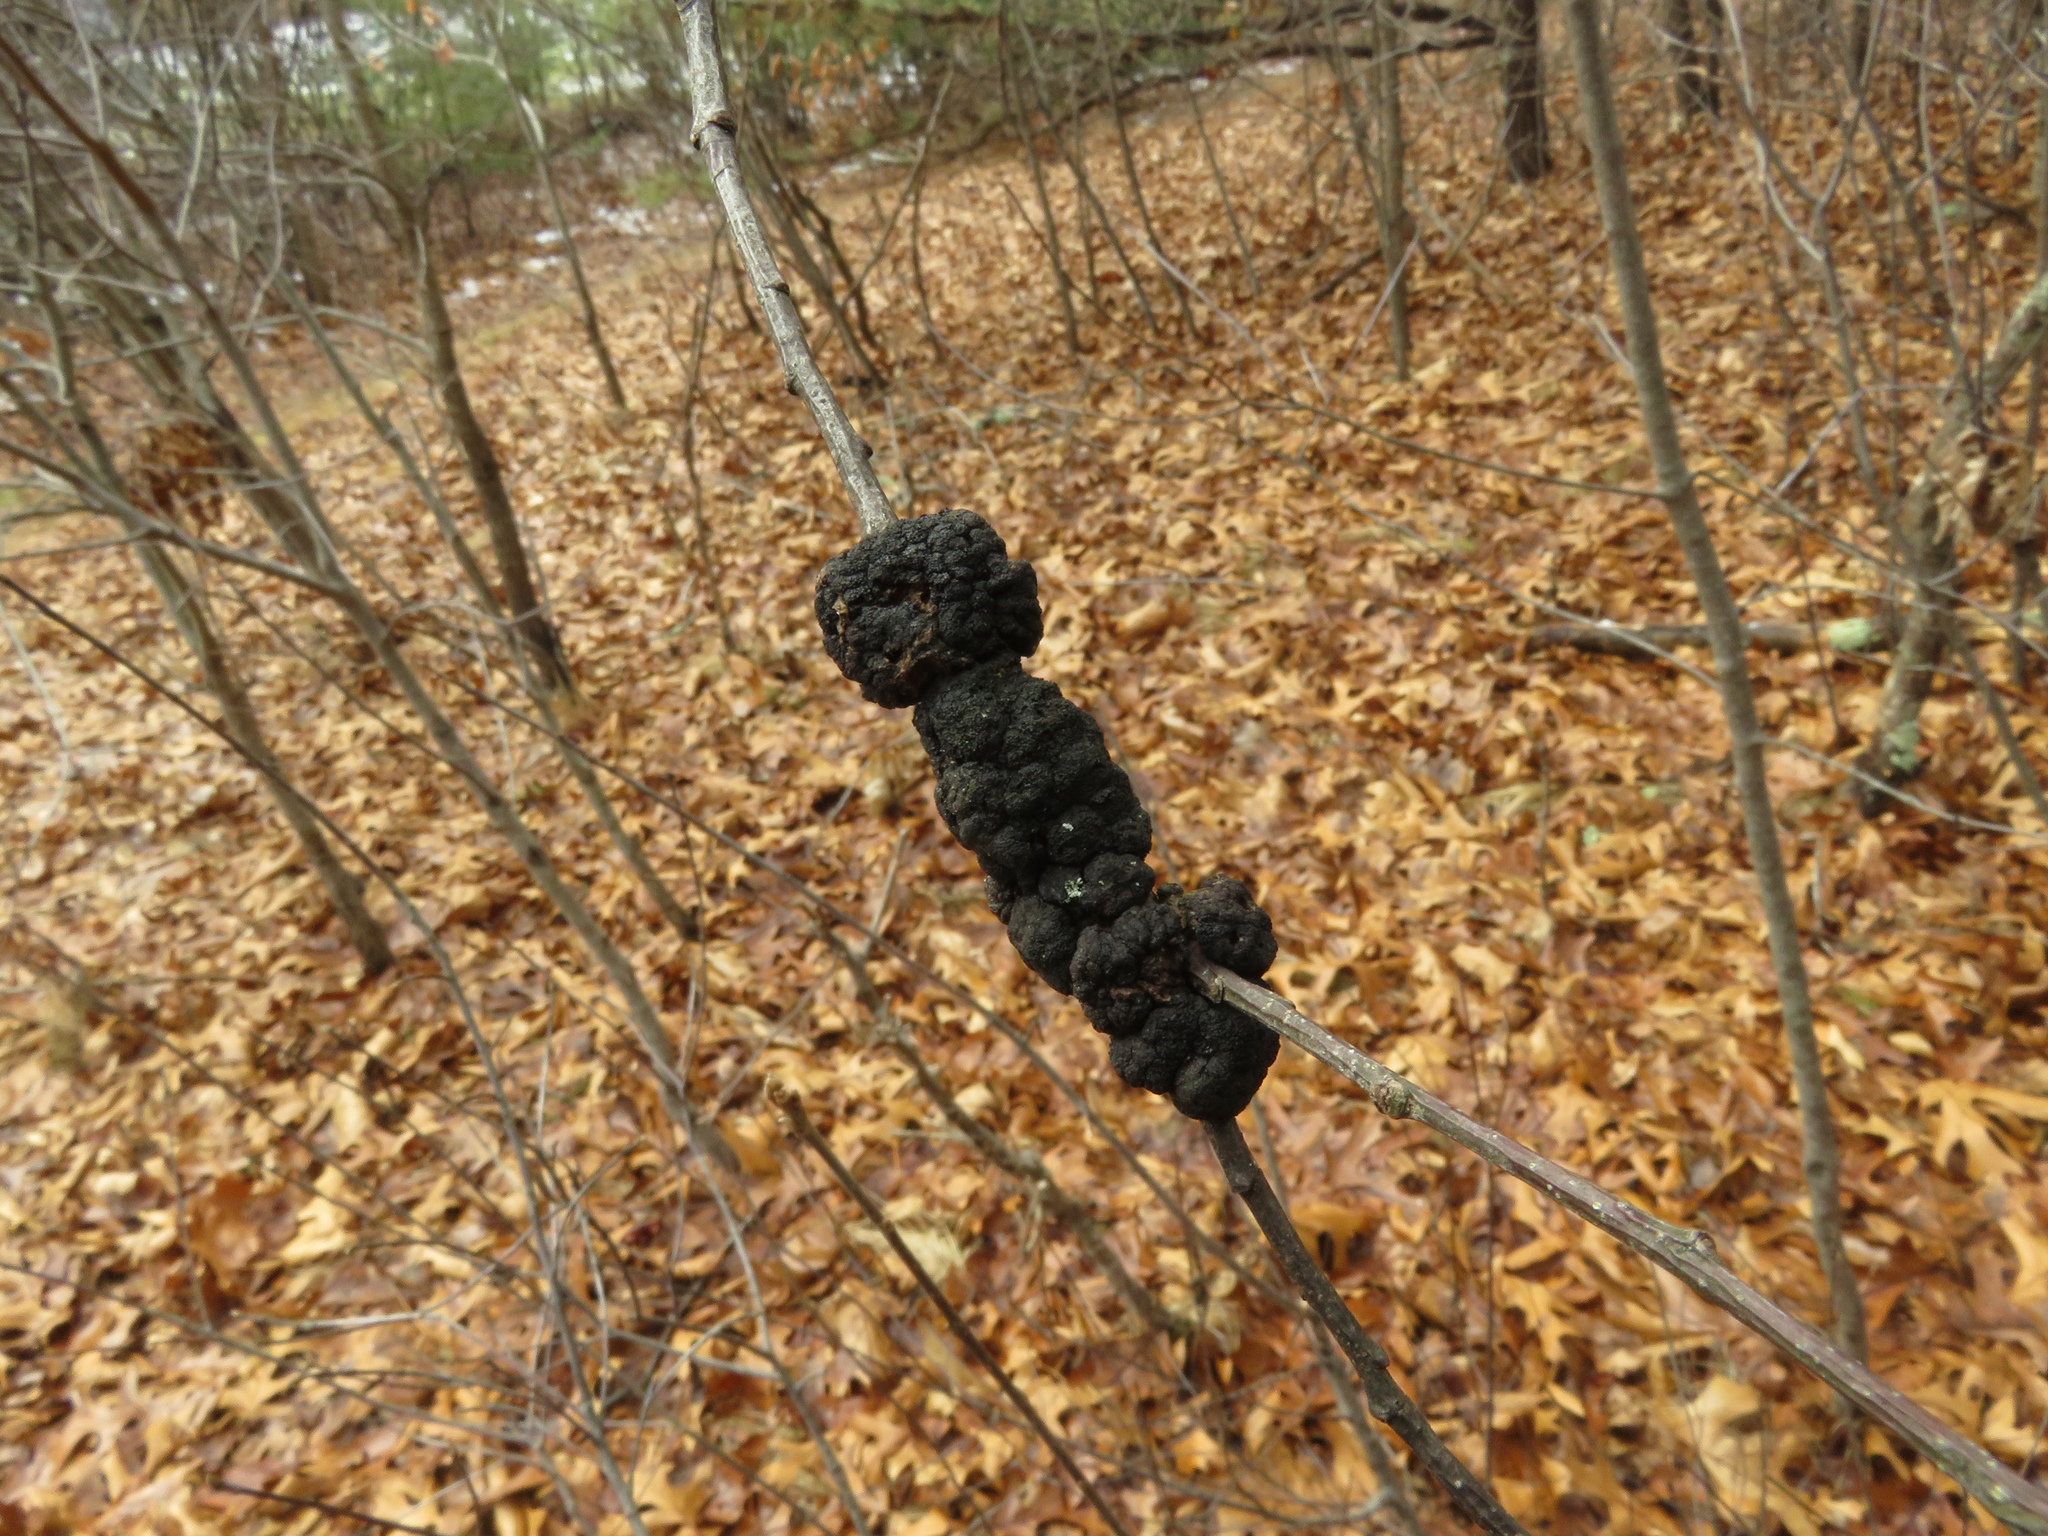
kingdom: Fungi
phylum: Ascomycota
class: Dothideomycetes
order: Venturiales
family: Venturiaceae
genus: Apiosporina
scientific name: Apiosporina morbosa
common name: Black knot
